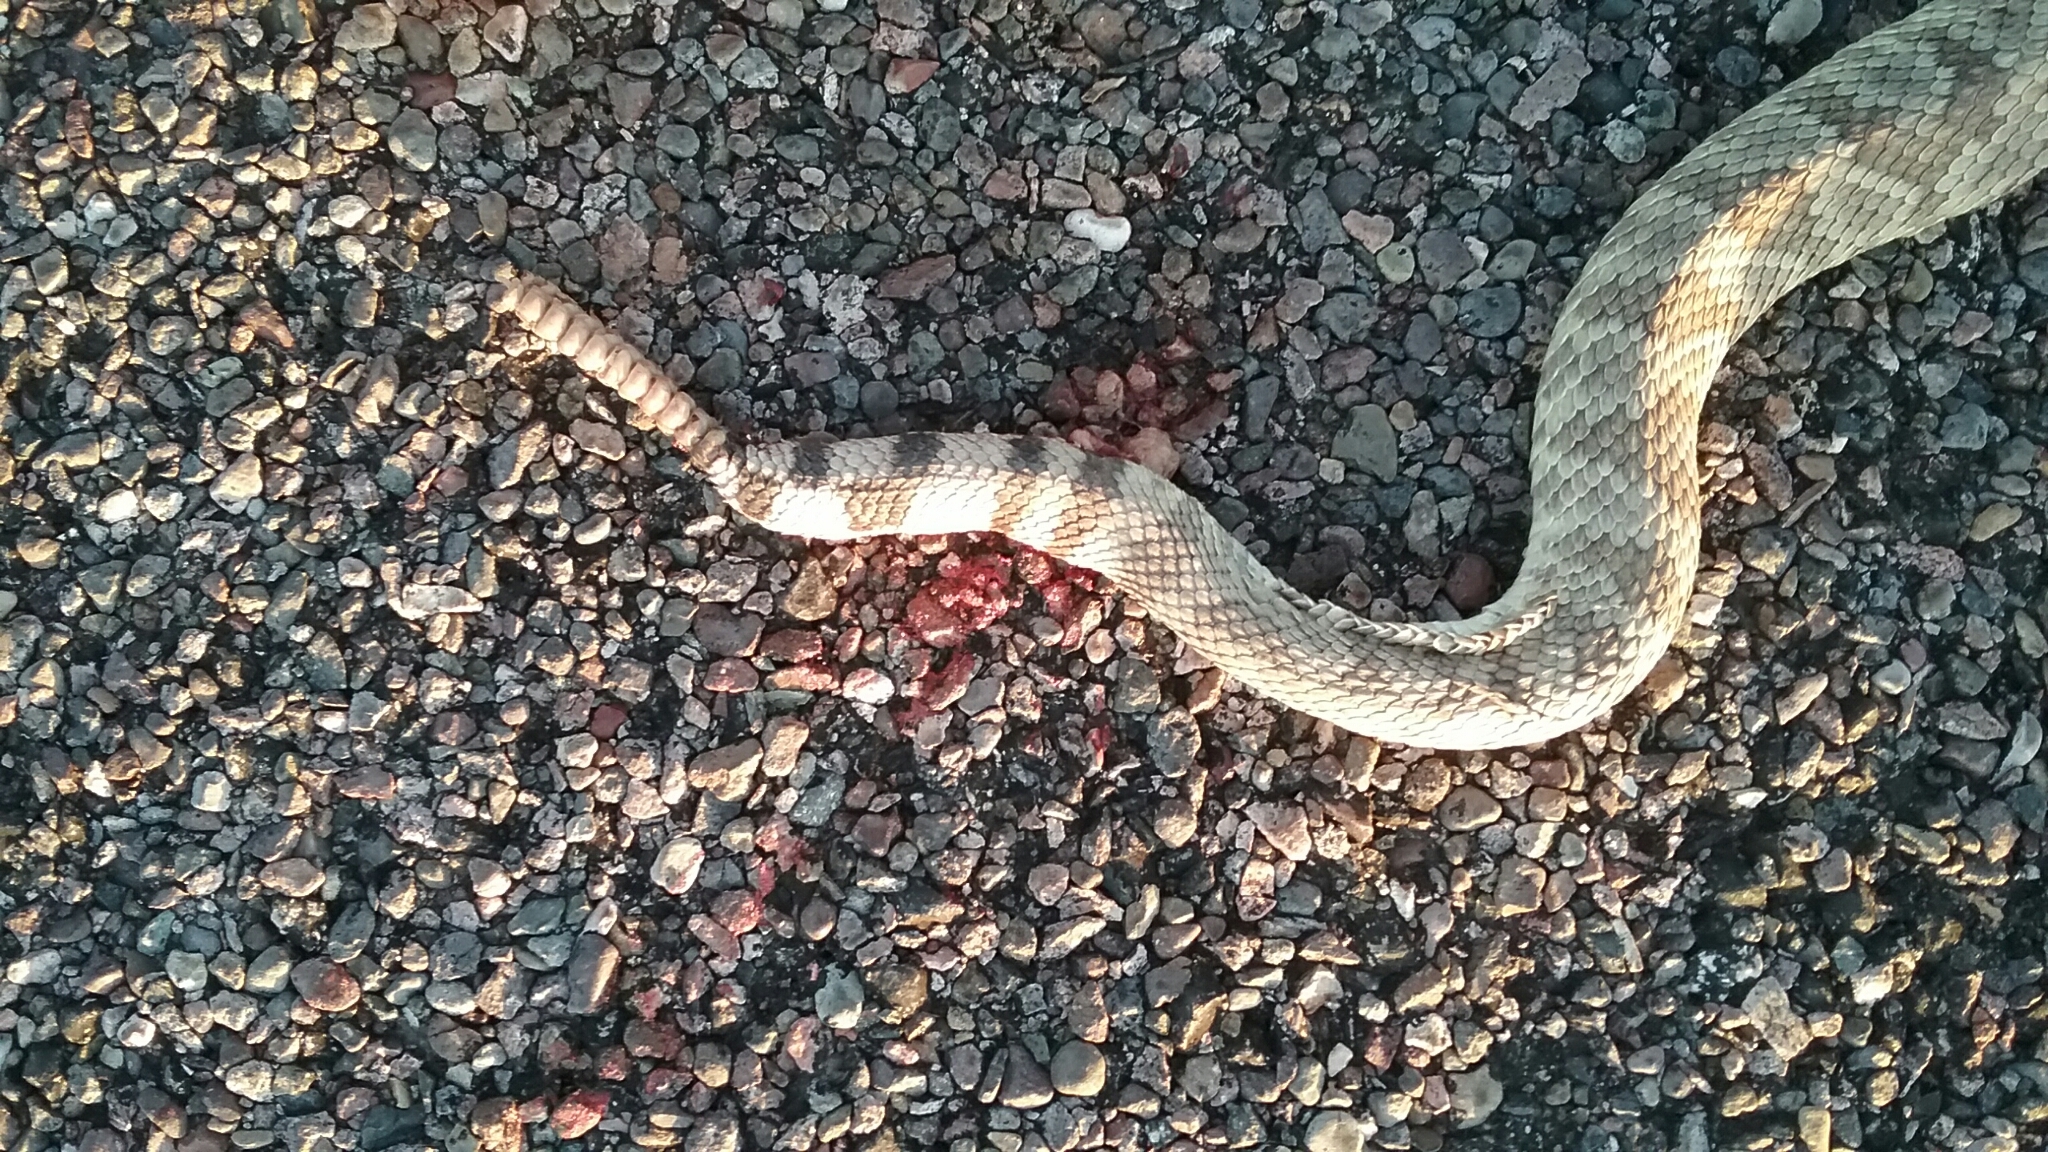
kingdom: Animalia
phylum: Chordata
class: Squamata
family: Viperidae
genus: Crotalus
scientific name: Crotalus scutulatus
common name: Scutulatus
